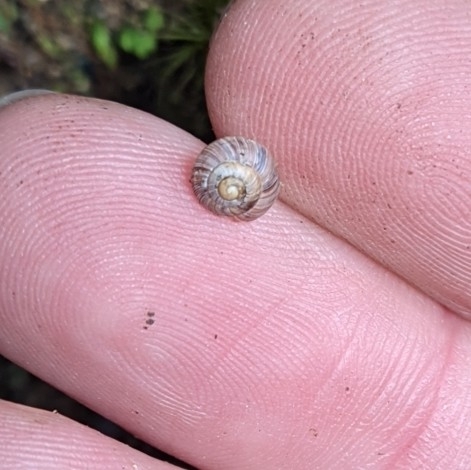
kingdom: Animalia
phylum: Mollusca
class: Gastropoda
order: Stylommatophora
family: Charopidae
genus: Serpho
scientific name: Serpho
